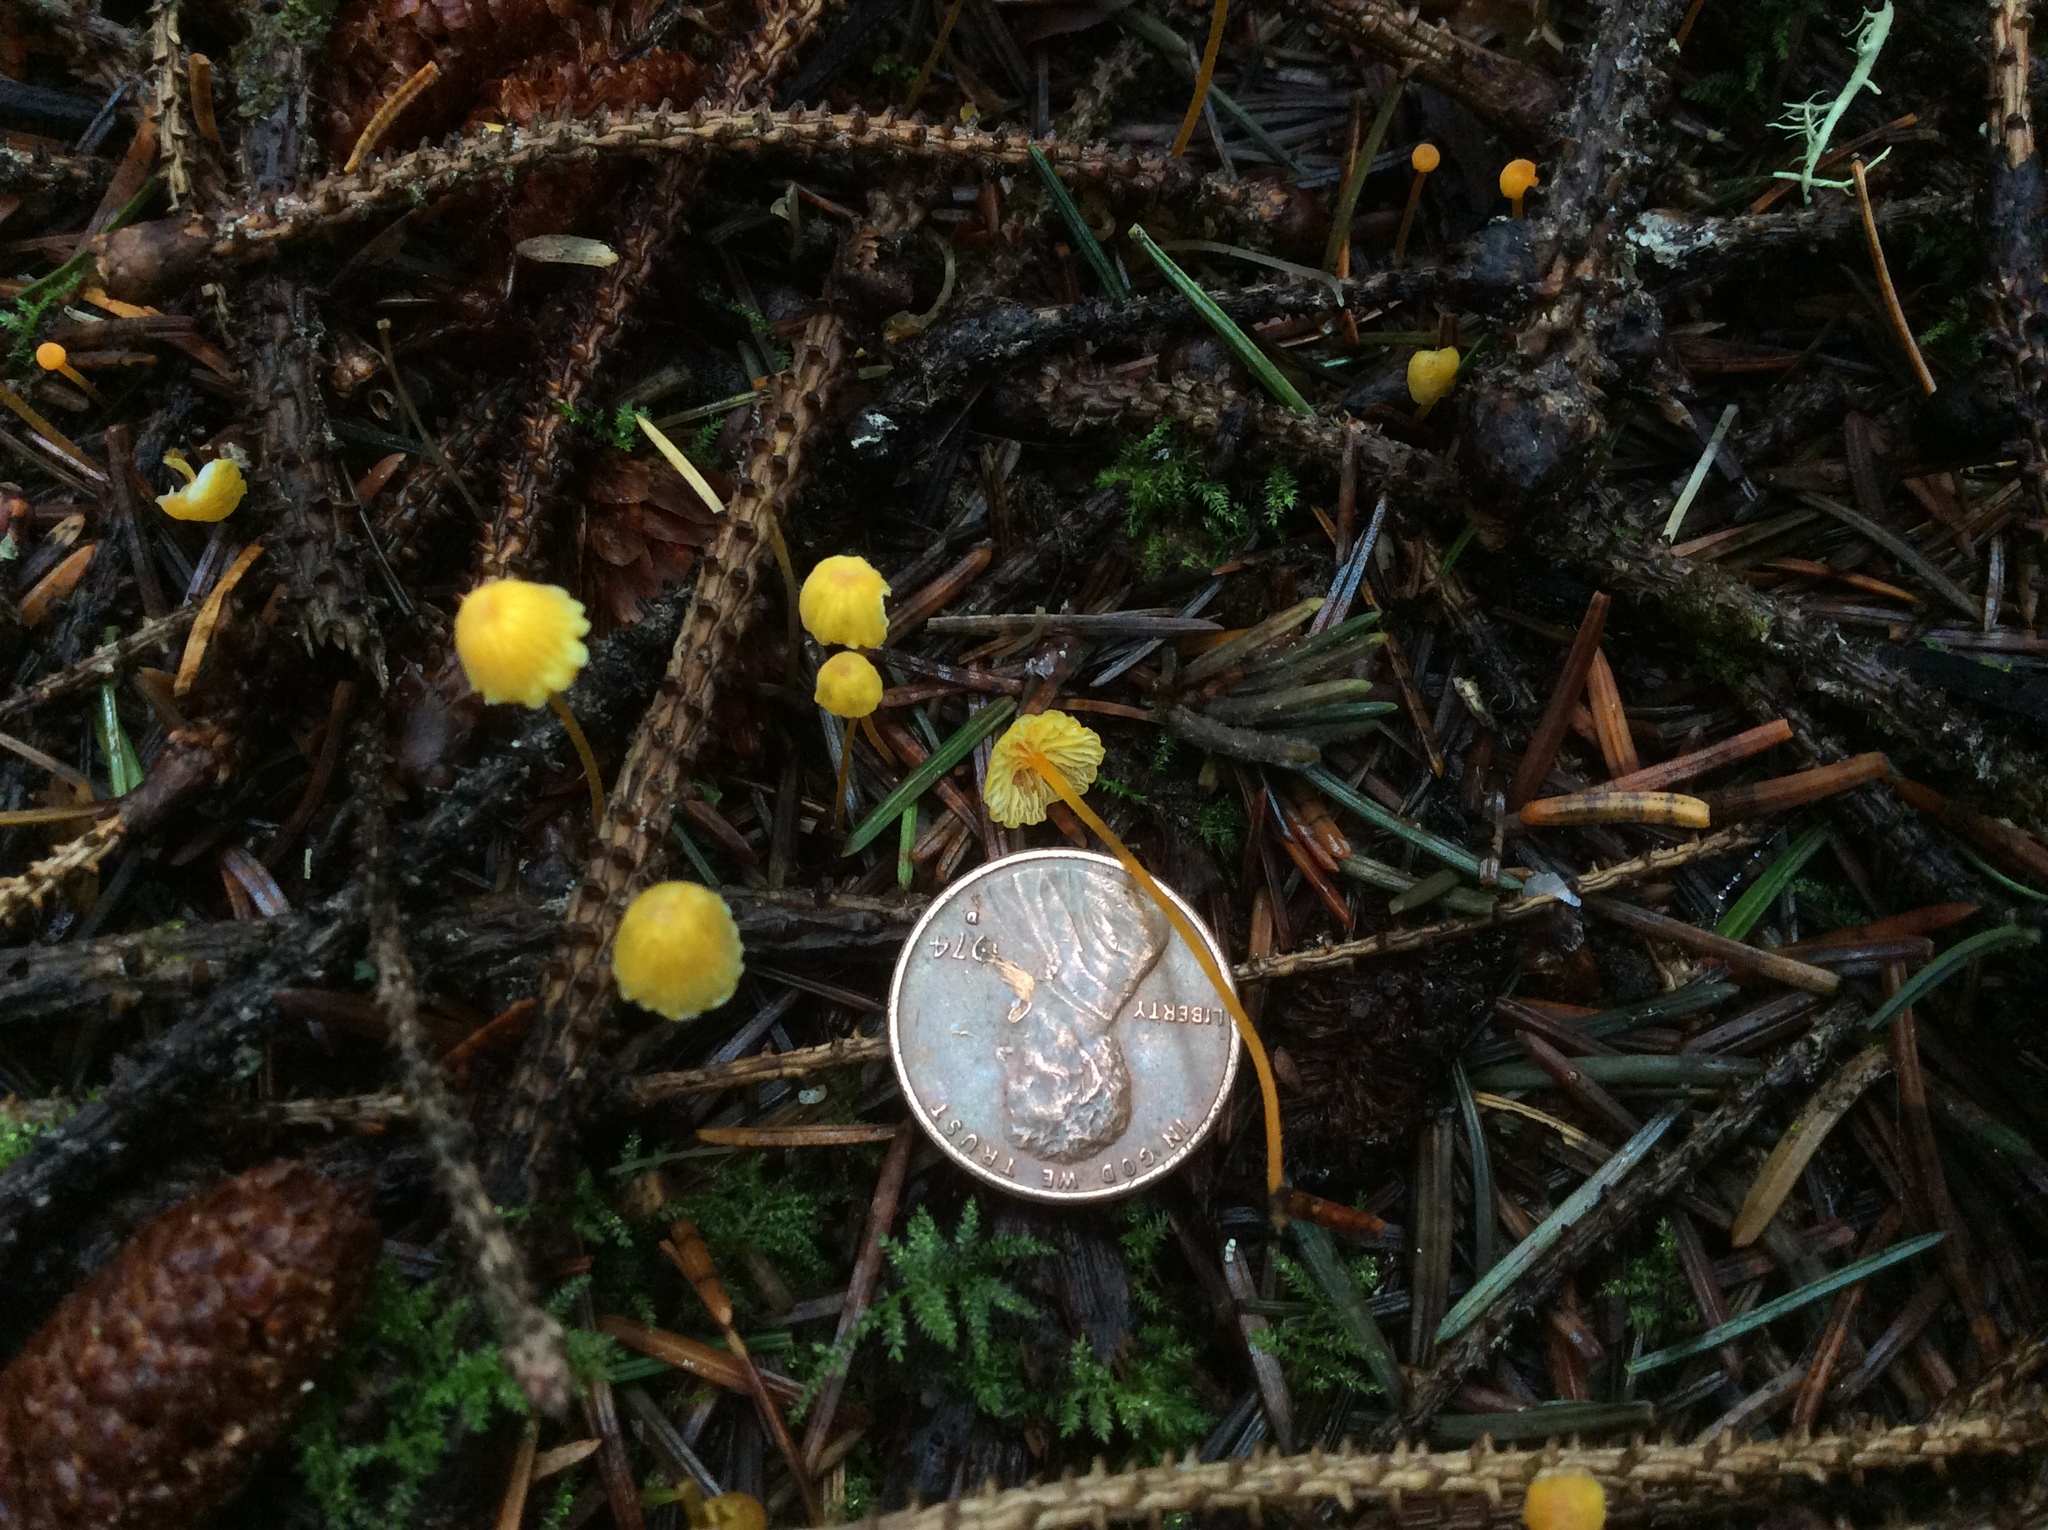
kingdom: Fungi
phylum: Basidiomycota
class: Agaricomycetes
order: Agaricales
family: Mycenaceae
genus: Mycena
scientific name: Mycena oregonensis
